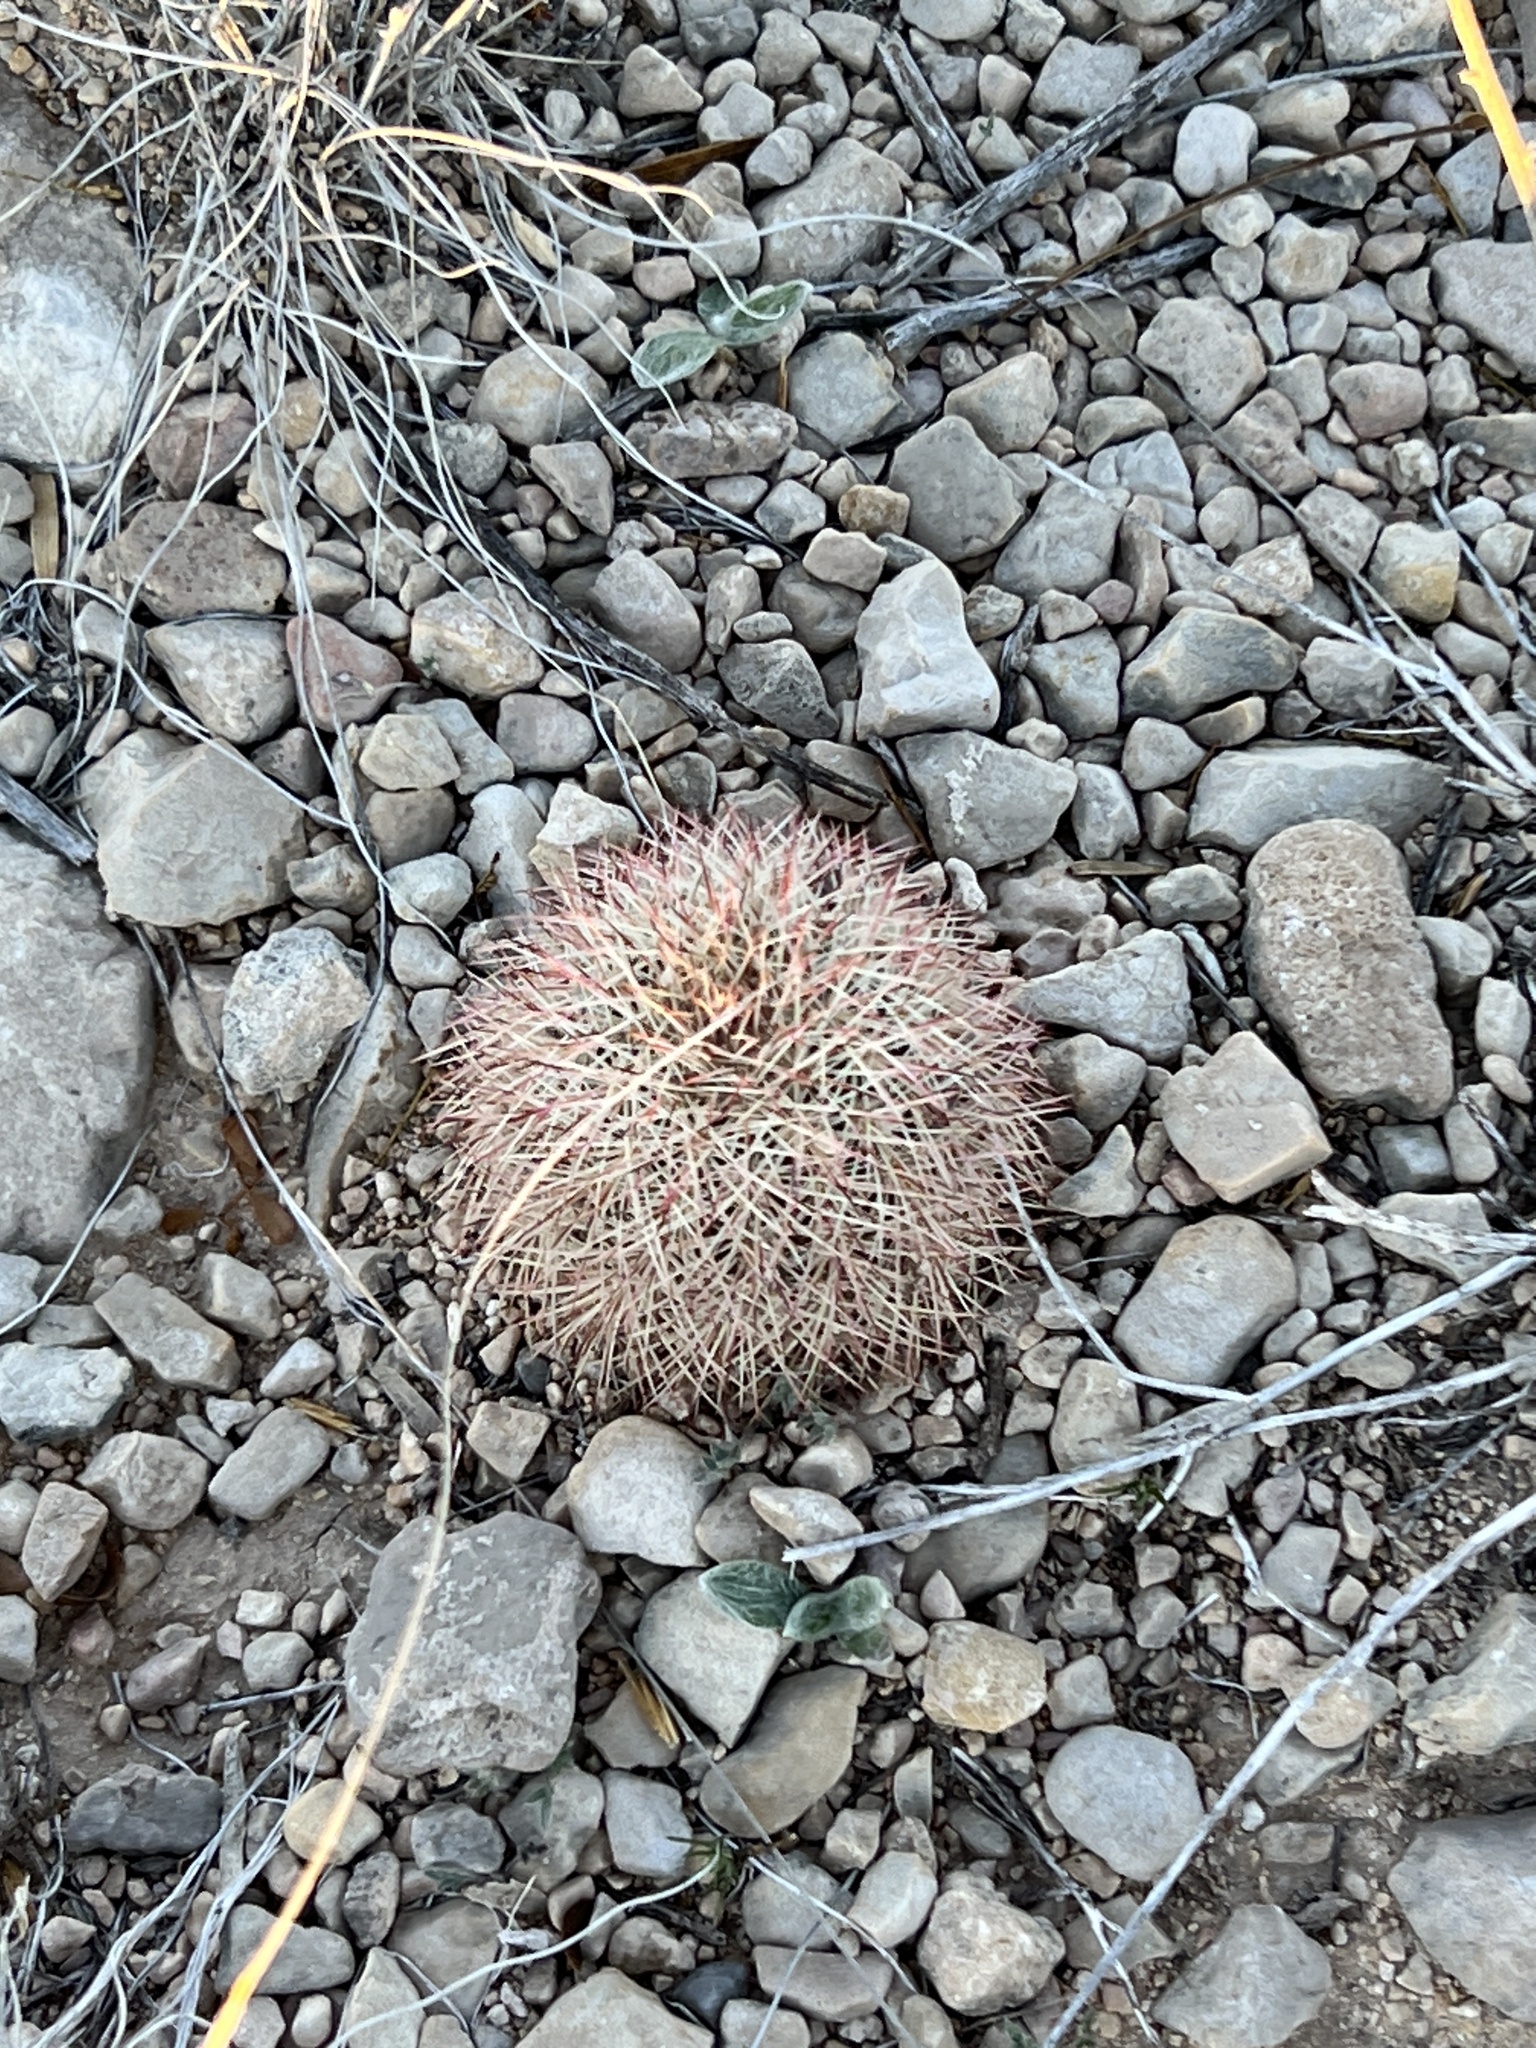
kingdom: Plantae
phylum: Tracheophyta
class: Magnoliopsida
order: Caryophyllales
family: Cactaceae
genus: Echinocereus
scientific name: Echinocereus dasyacanthus
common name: Spiny hedgehog cactus
